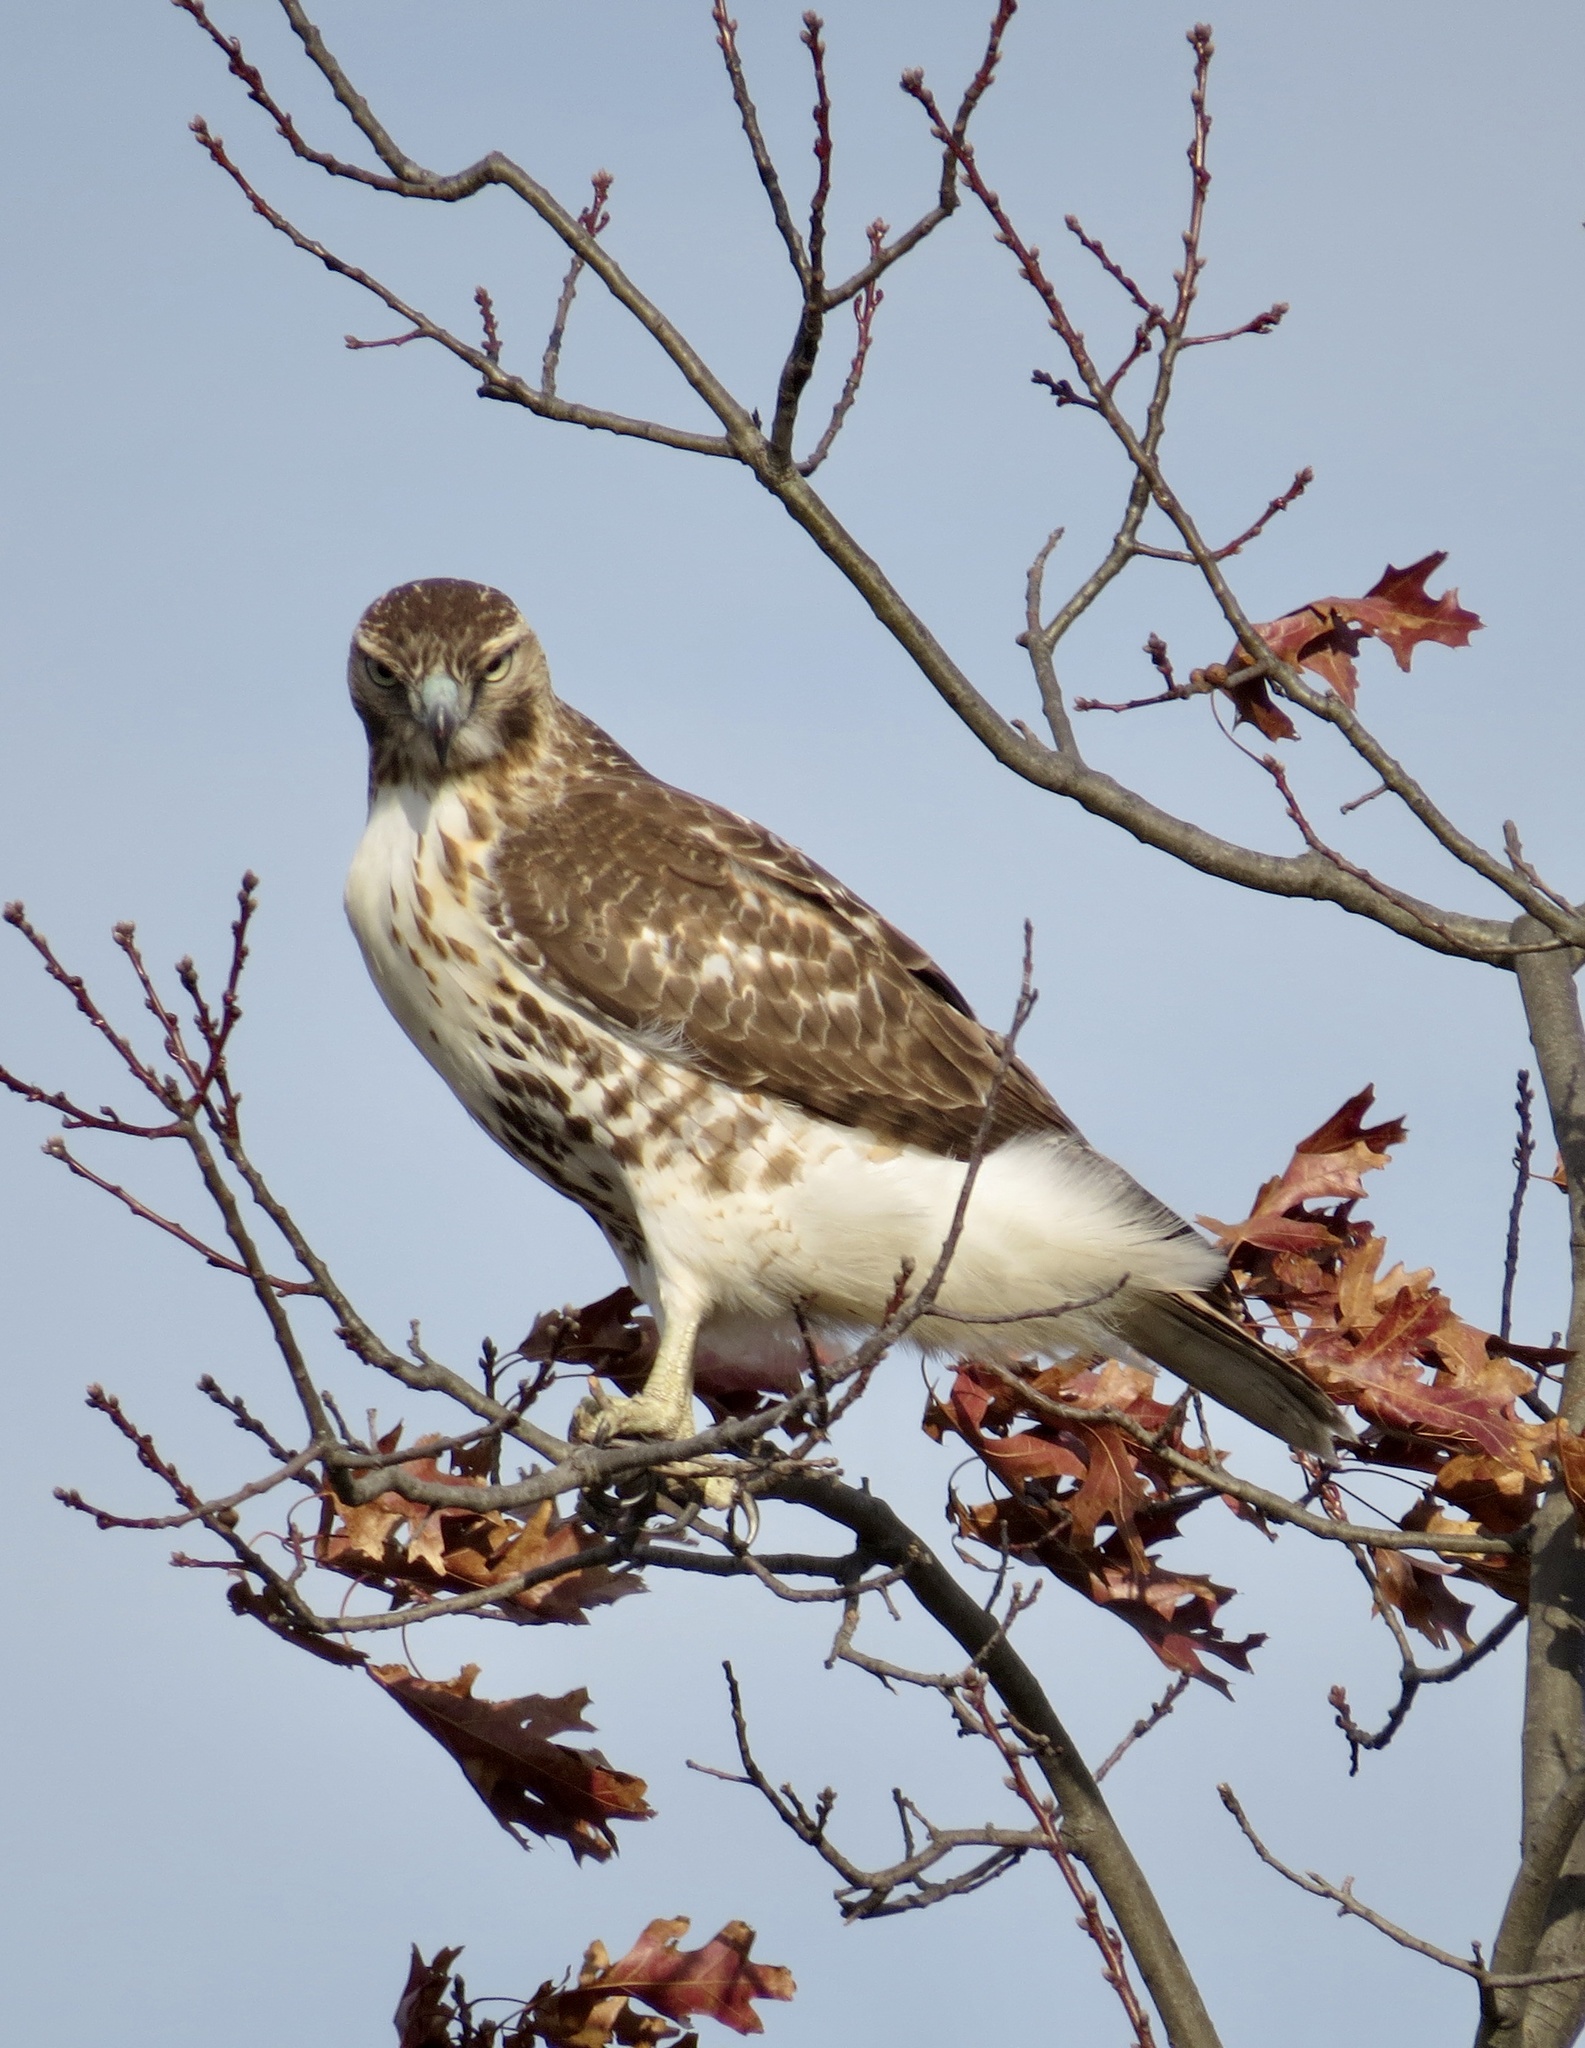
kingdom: Animalia
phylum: Chordata
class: Aves
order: Accipitriformes
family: Accipitridae
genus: Buteo
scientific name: Buteo jamaicensis
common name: Red-tailed hawk
